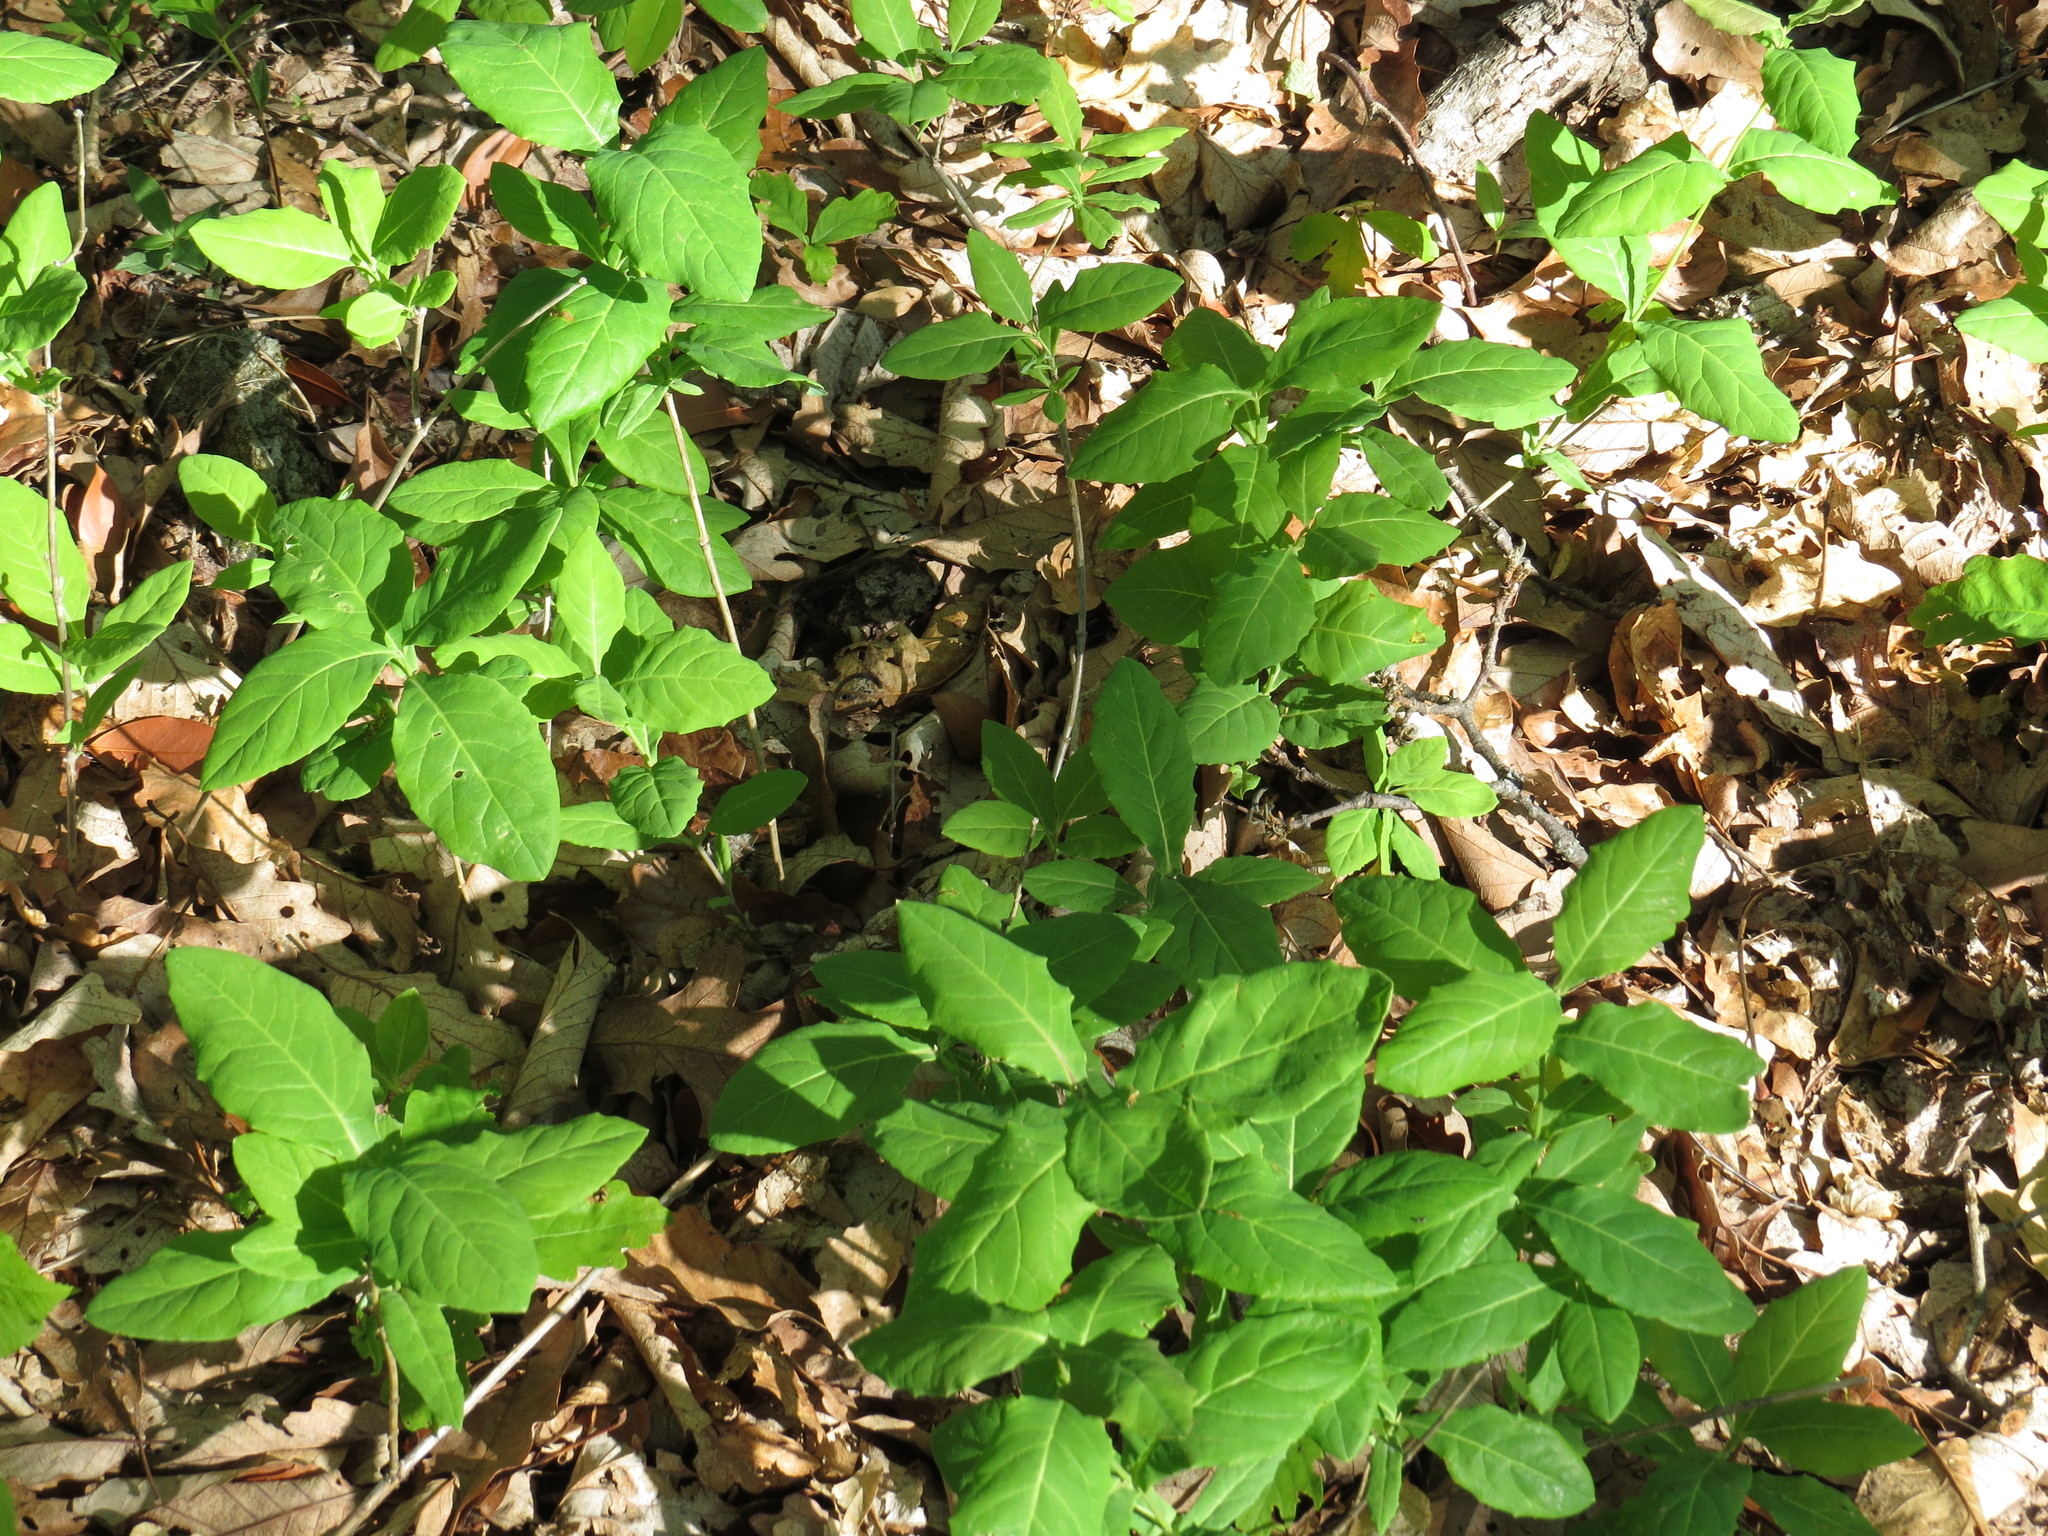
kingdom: Plantae
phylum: Tracheophyta
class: Magnoliopsida
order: Dipsacales
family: Caprifoliaceae
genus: Lonicera
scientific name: Lonicera dioica
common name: Limber honeysuckle
